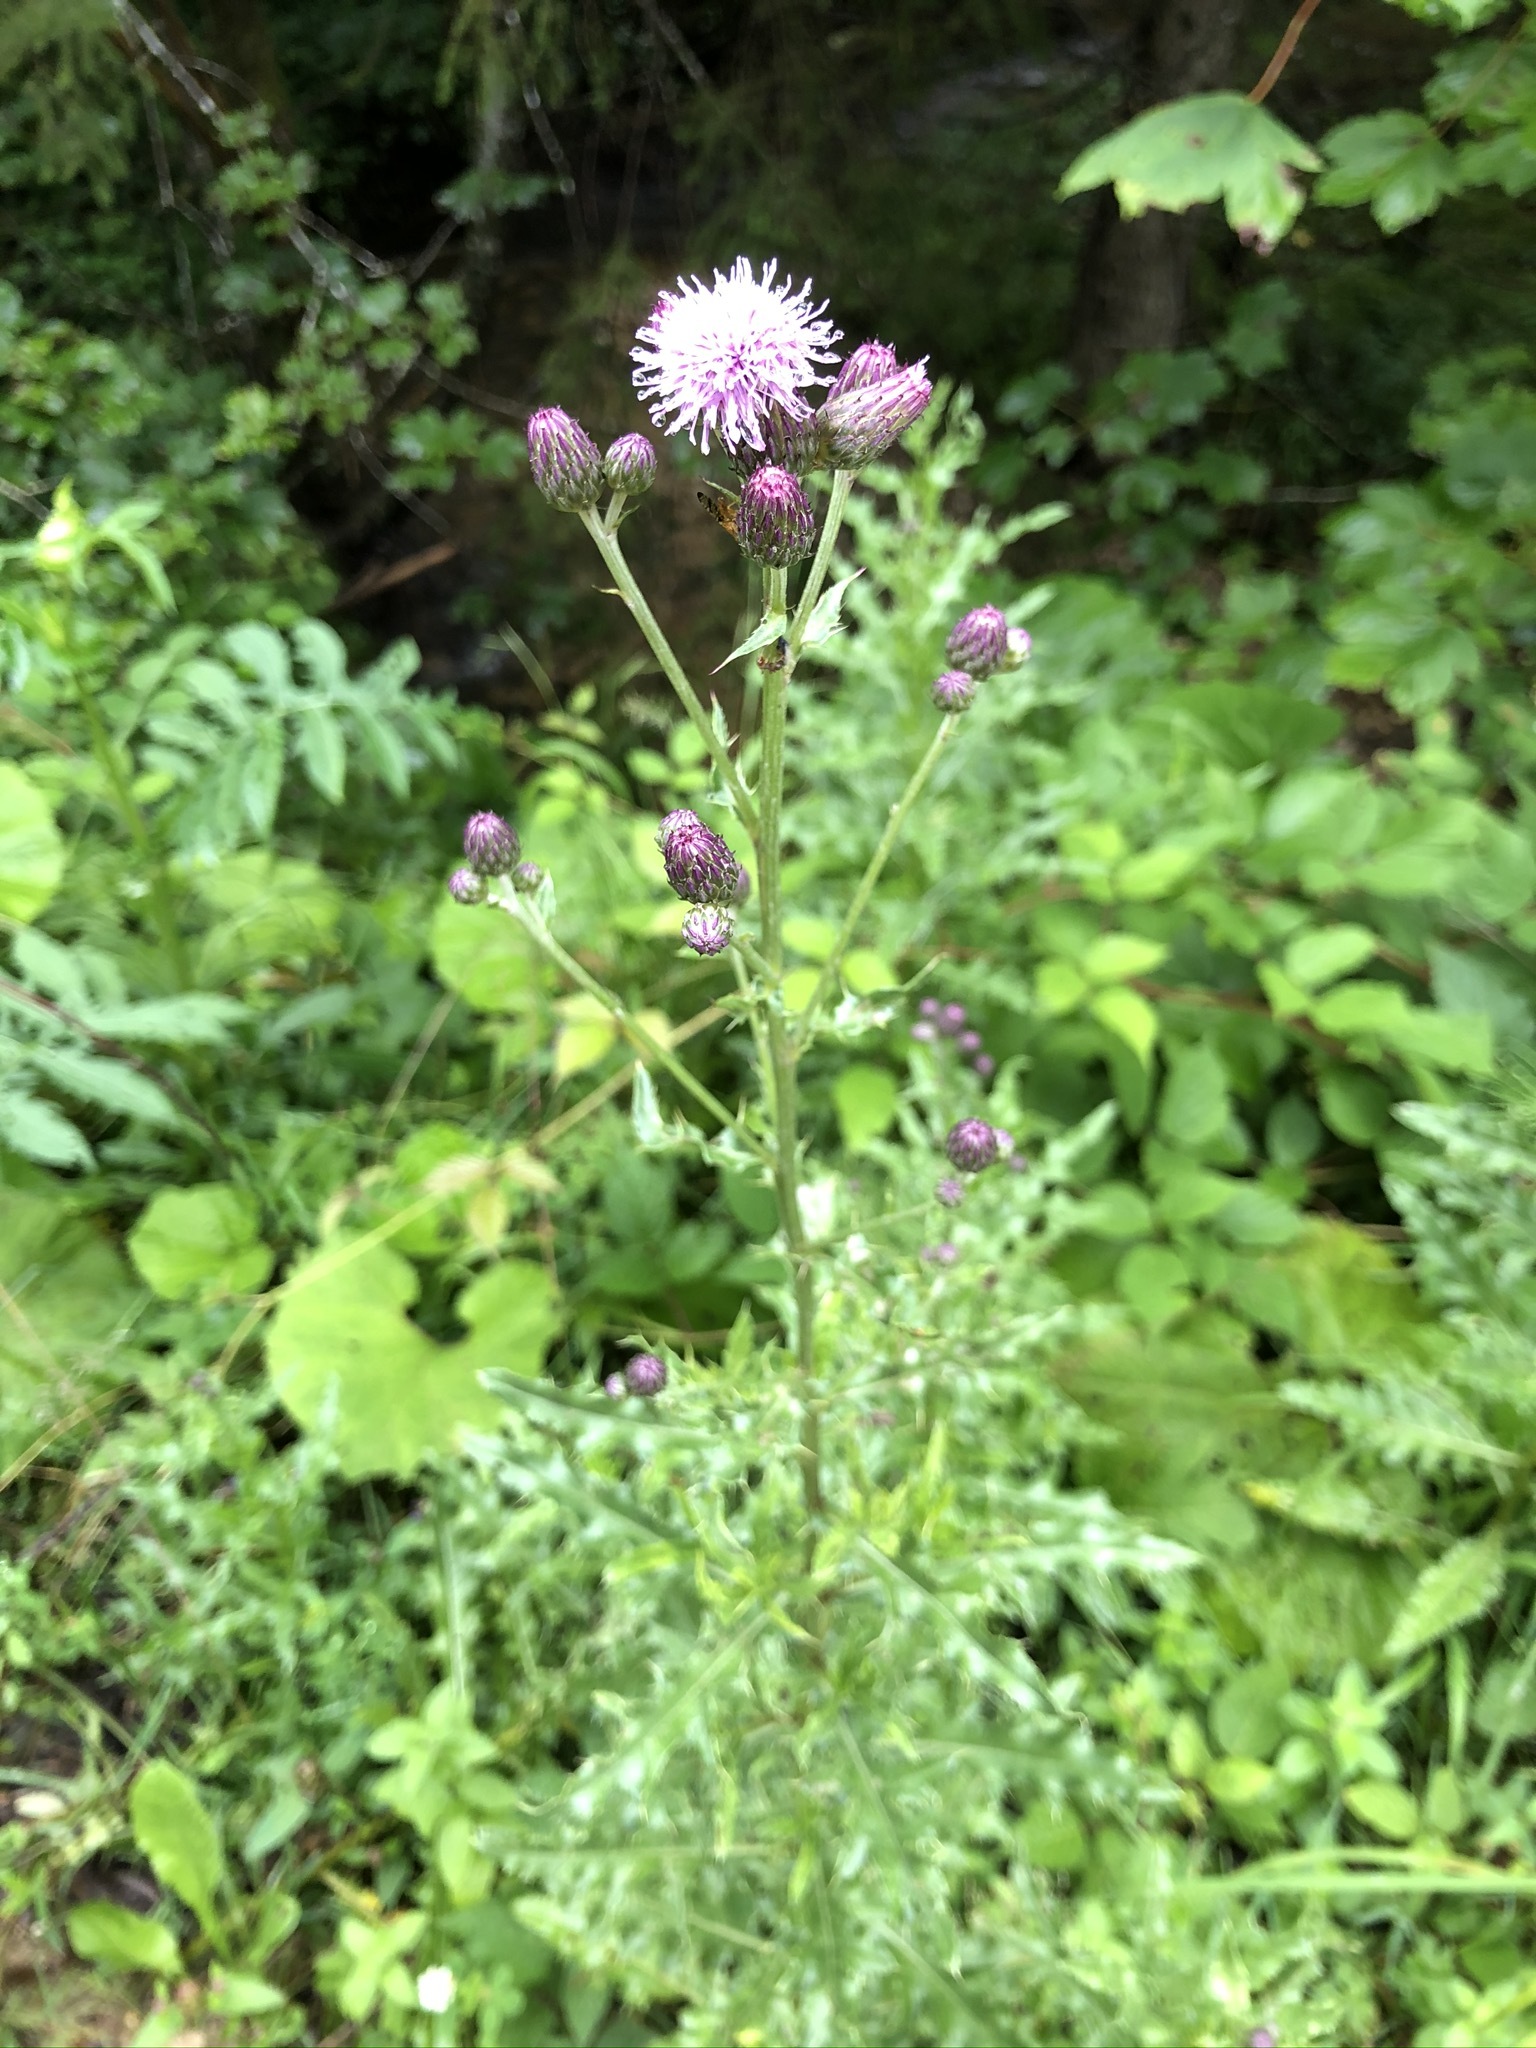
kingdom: Plantae
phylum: Tracheophyta
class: Magnoliopsida
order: Asterales
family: Asteraceae
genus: Cirsium
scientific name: Cirsium arvense
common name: Creeping thistle
